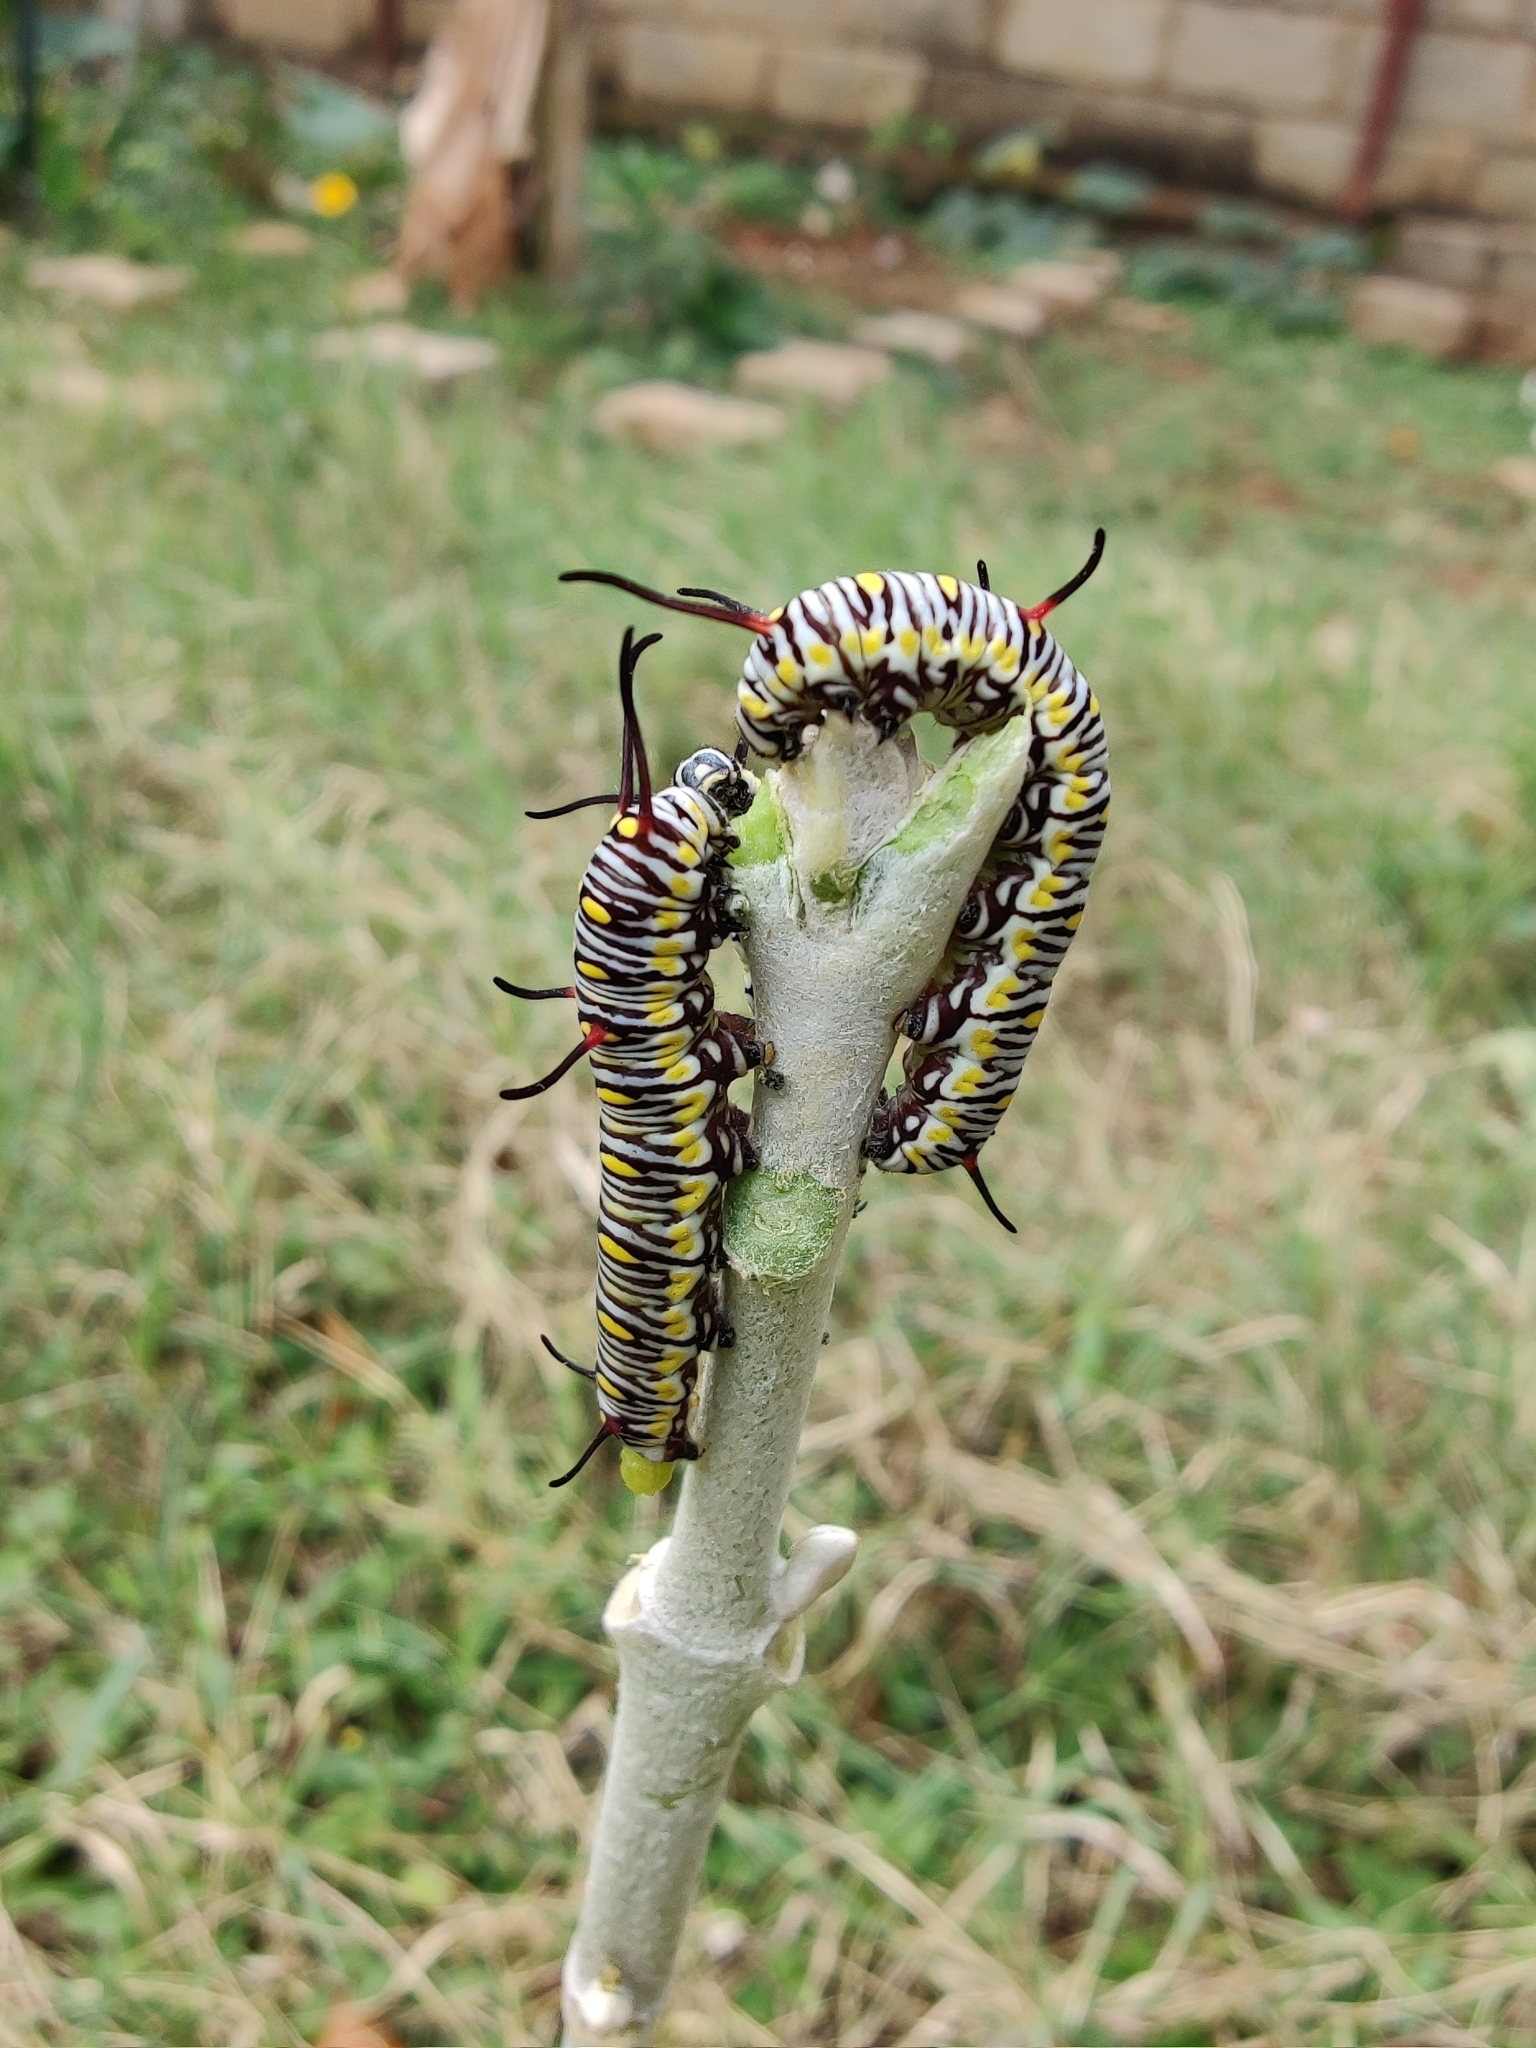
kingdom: Animalia
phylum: Arthropoda
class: Insecta
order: Lepidoptera
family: Nymphalidae
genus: Danaus
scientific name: Danaus chrysippus
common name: Plain tiger
